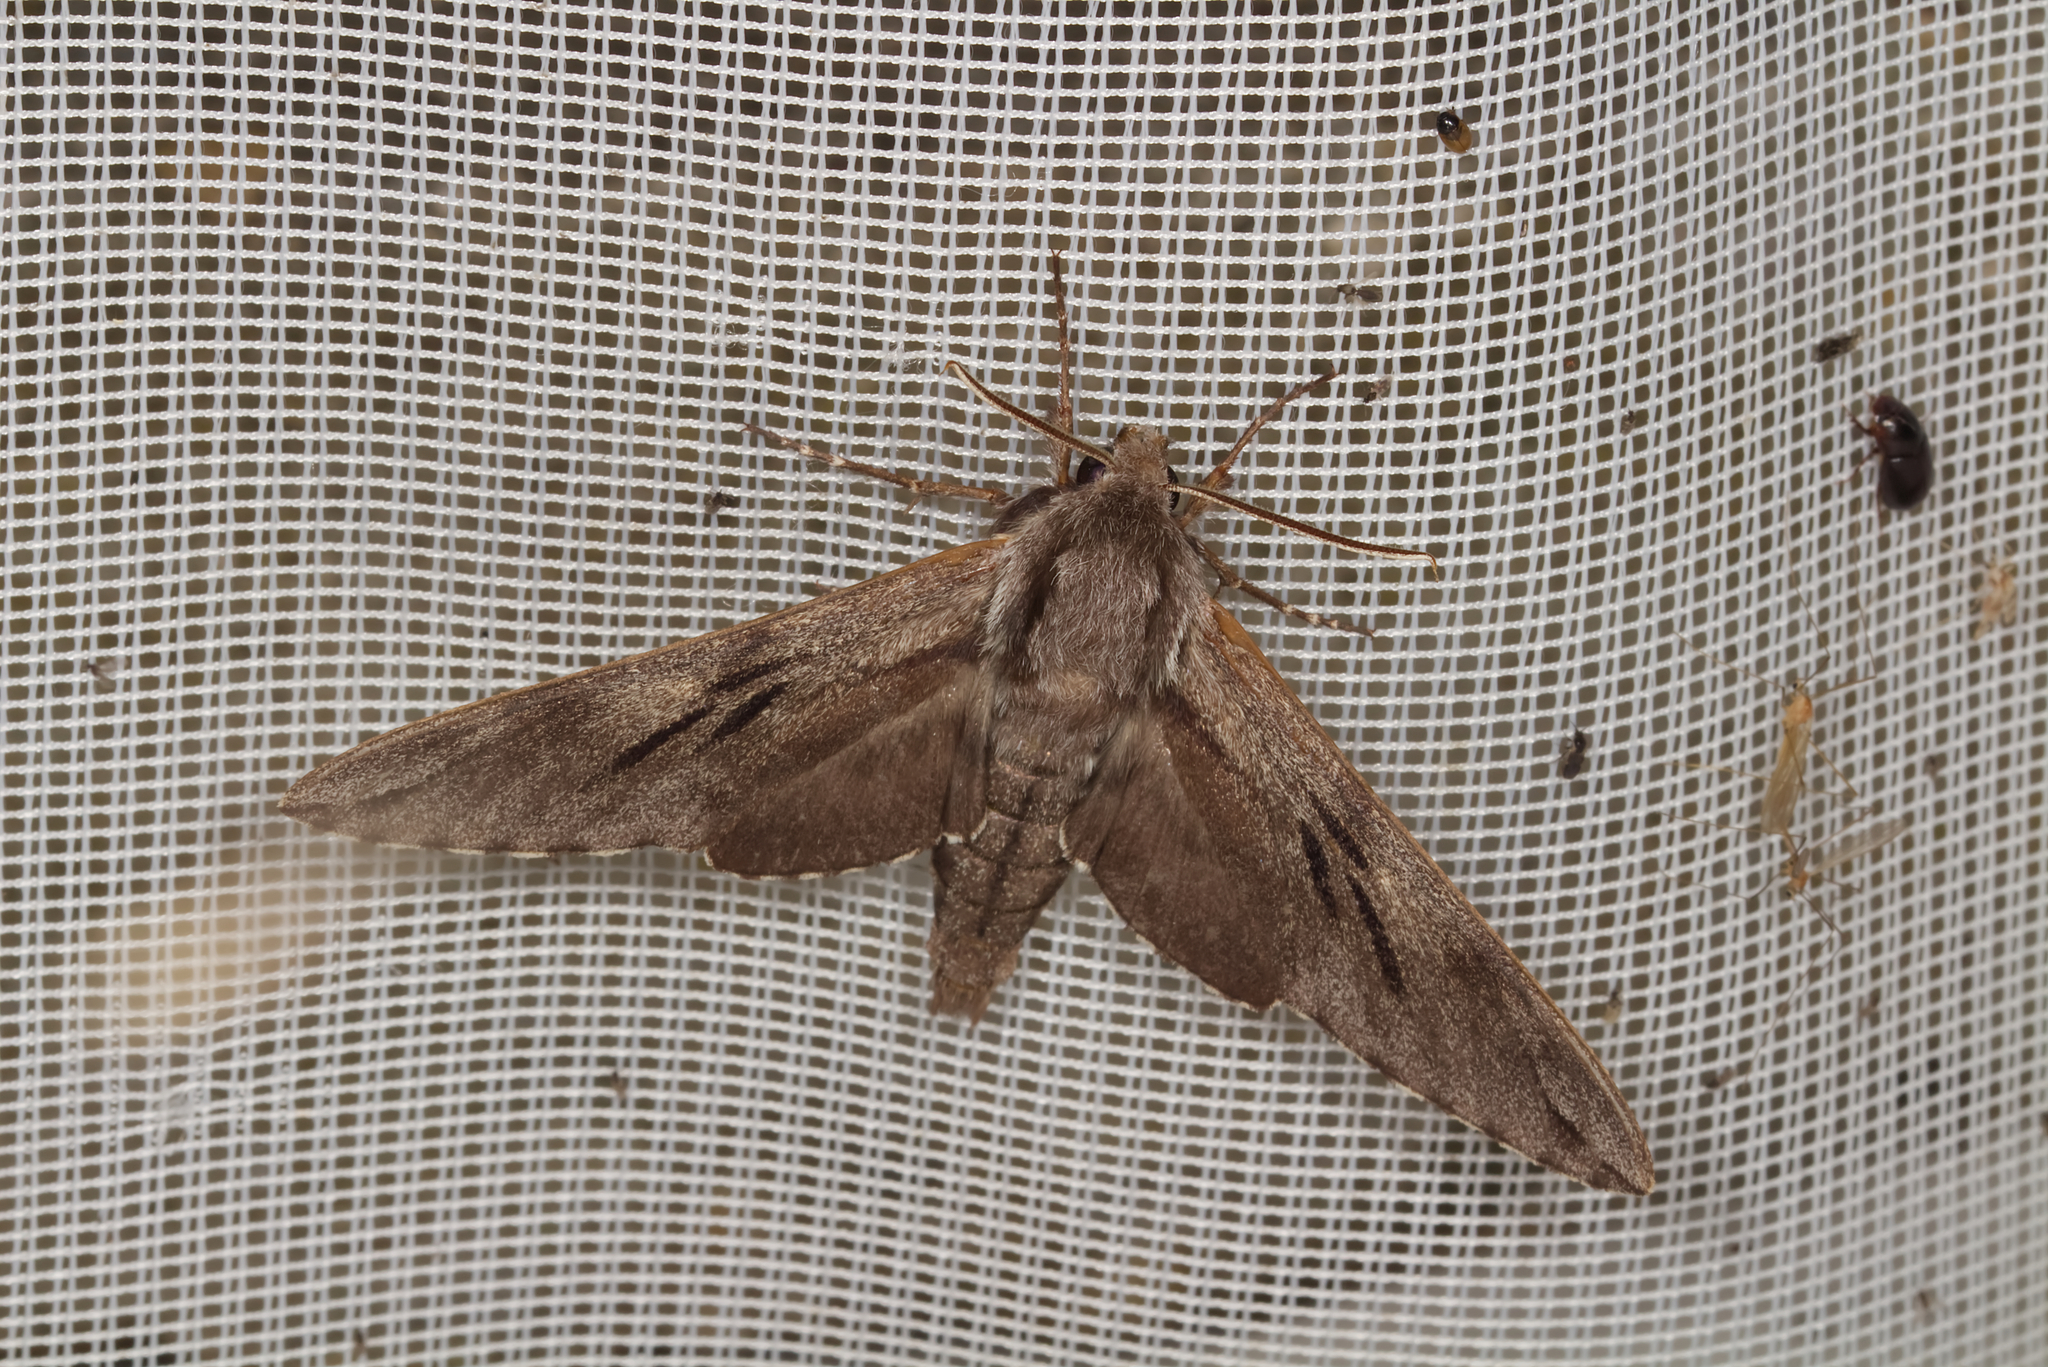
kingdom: Animalia
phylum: Arthropoda
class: Insecta
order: Lepidoptera
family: Sphingidae
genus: Sphinx
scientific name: Sphinx pinastri
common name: Pine hawk-moth
